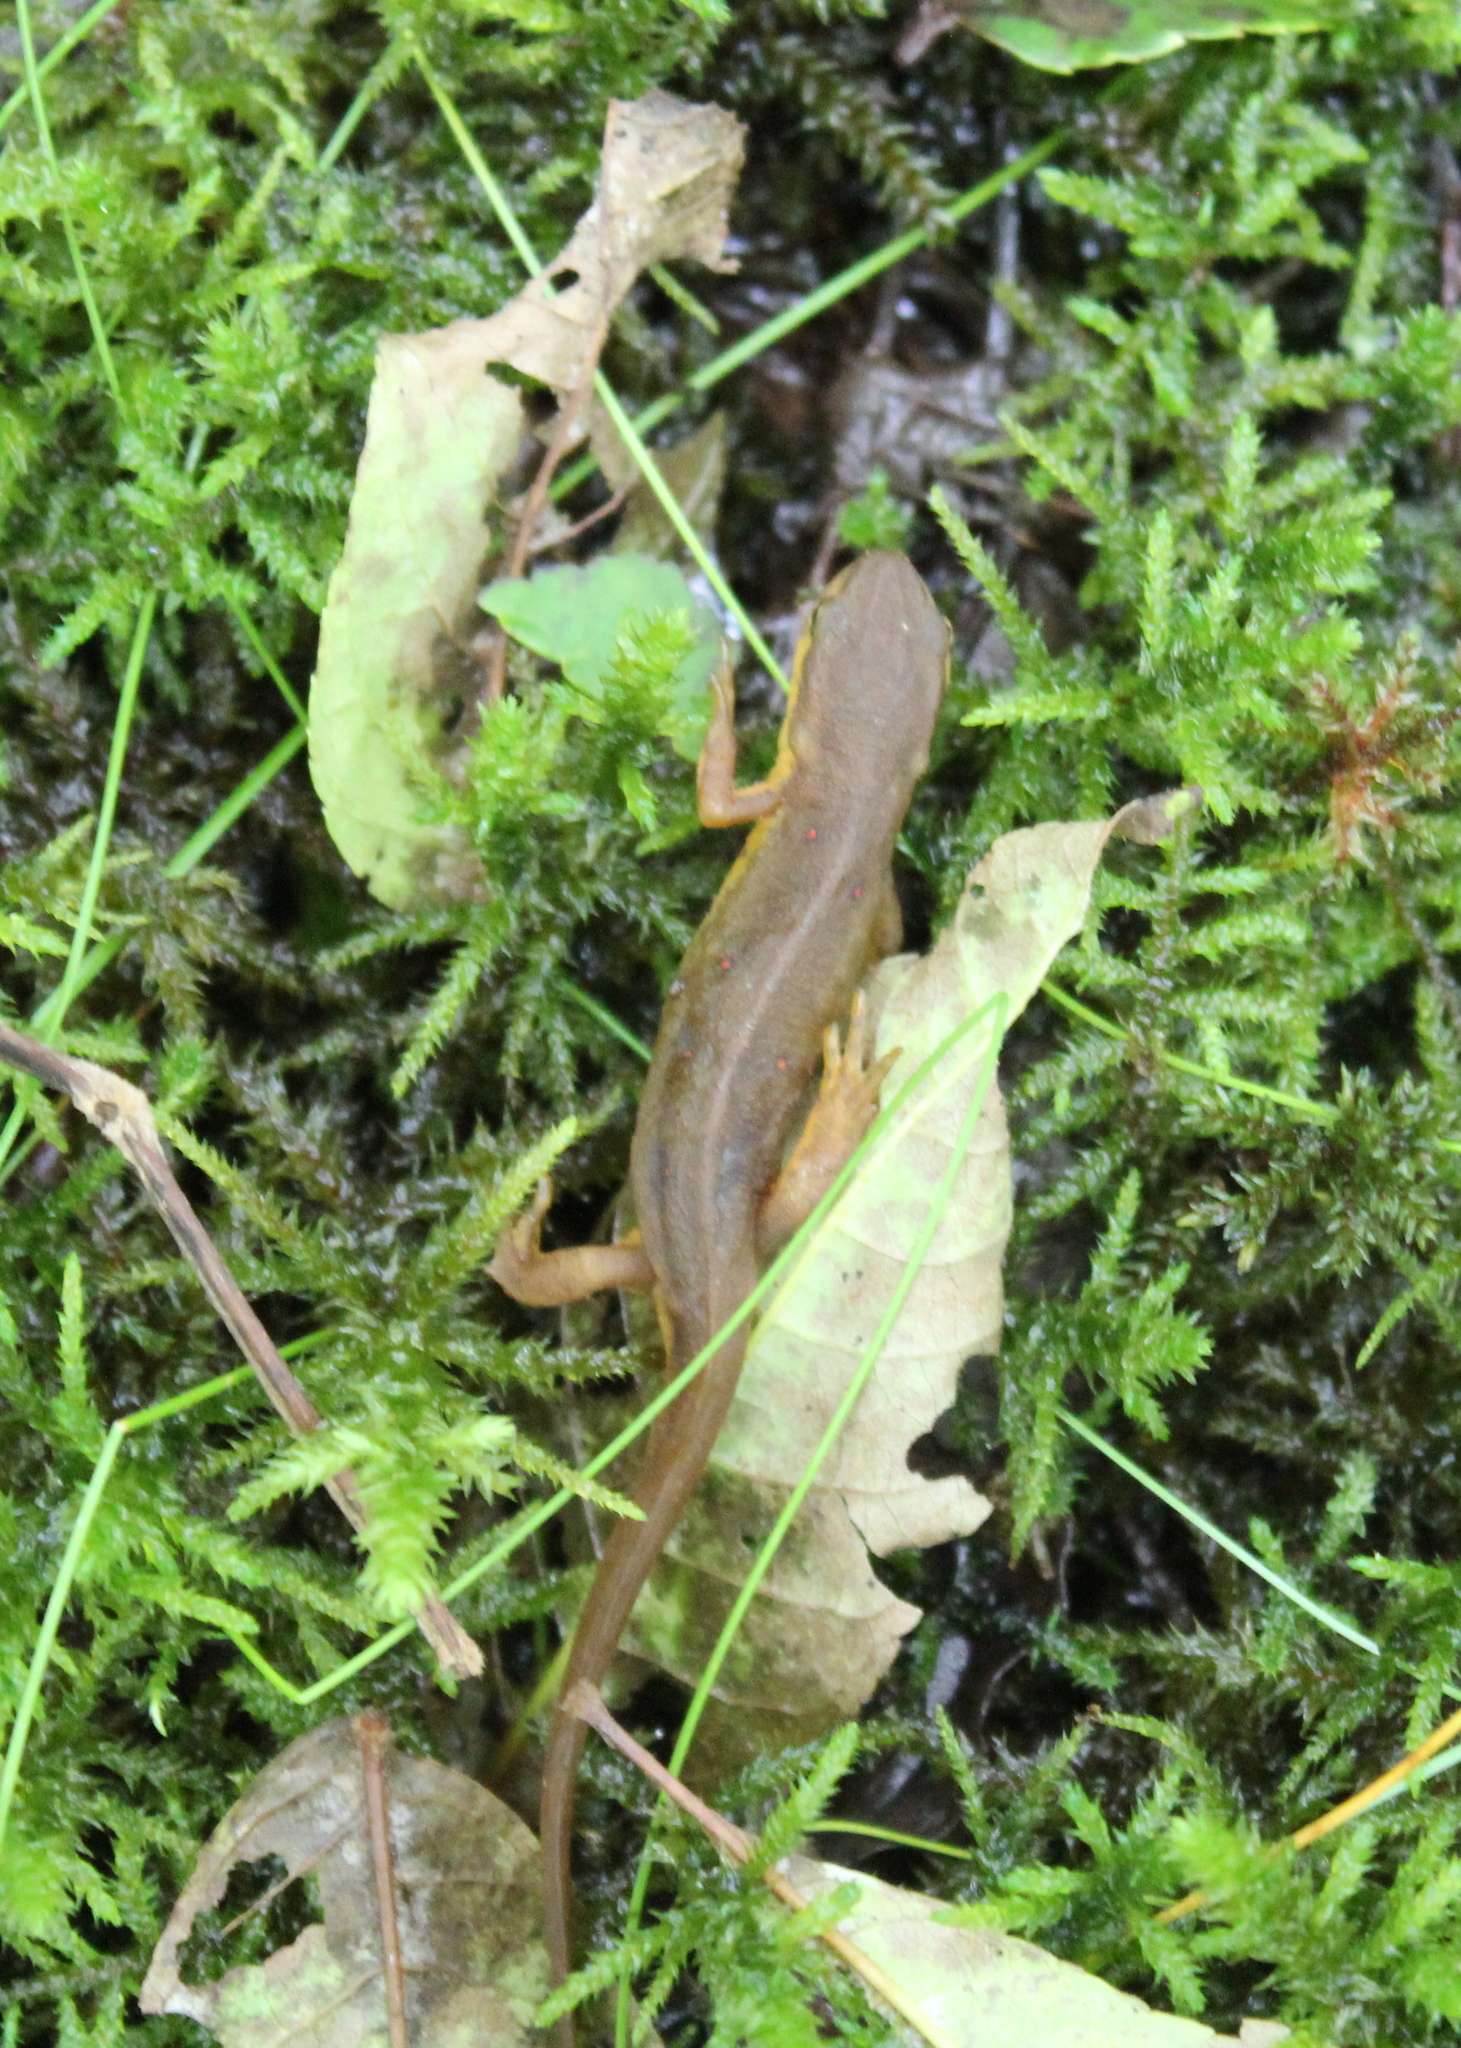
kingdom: Animalia
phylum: Chordata
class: Amphibia
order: Caudata
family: Salamandridae
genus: Notophthalmus
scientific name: Notophthalmus viridescens
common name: Eastern newt
